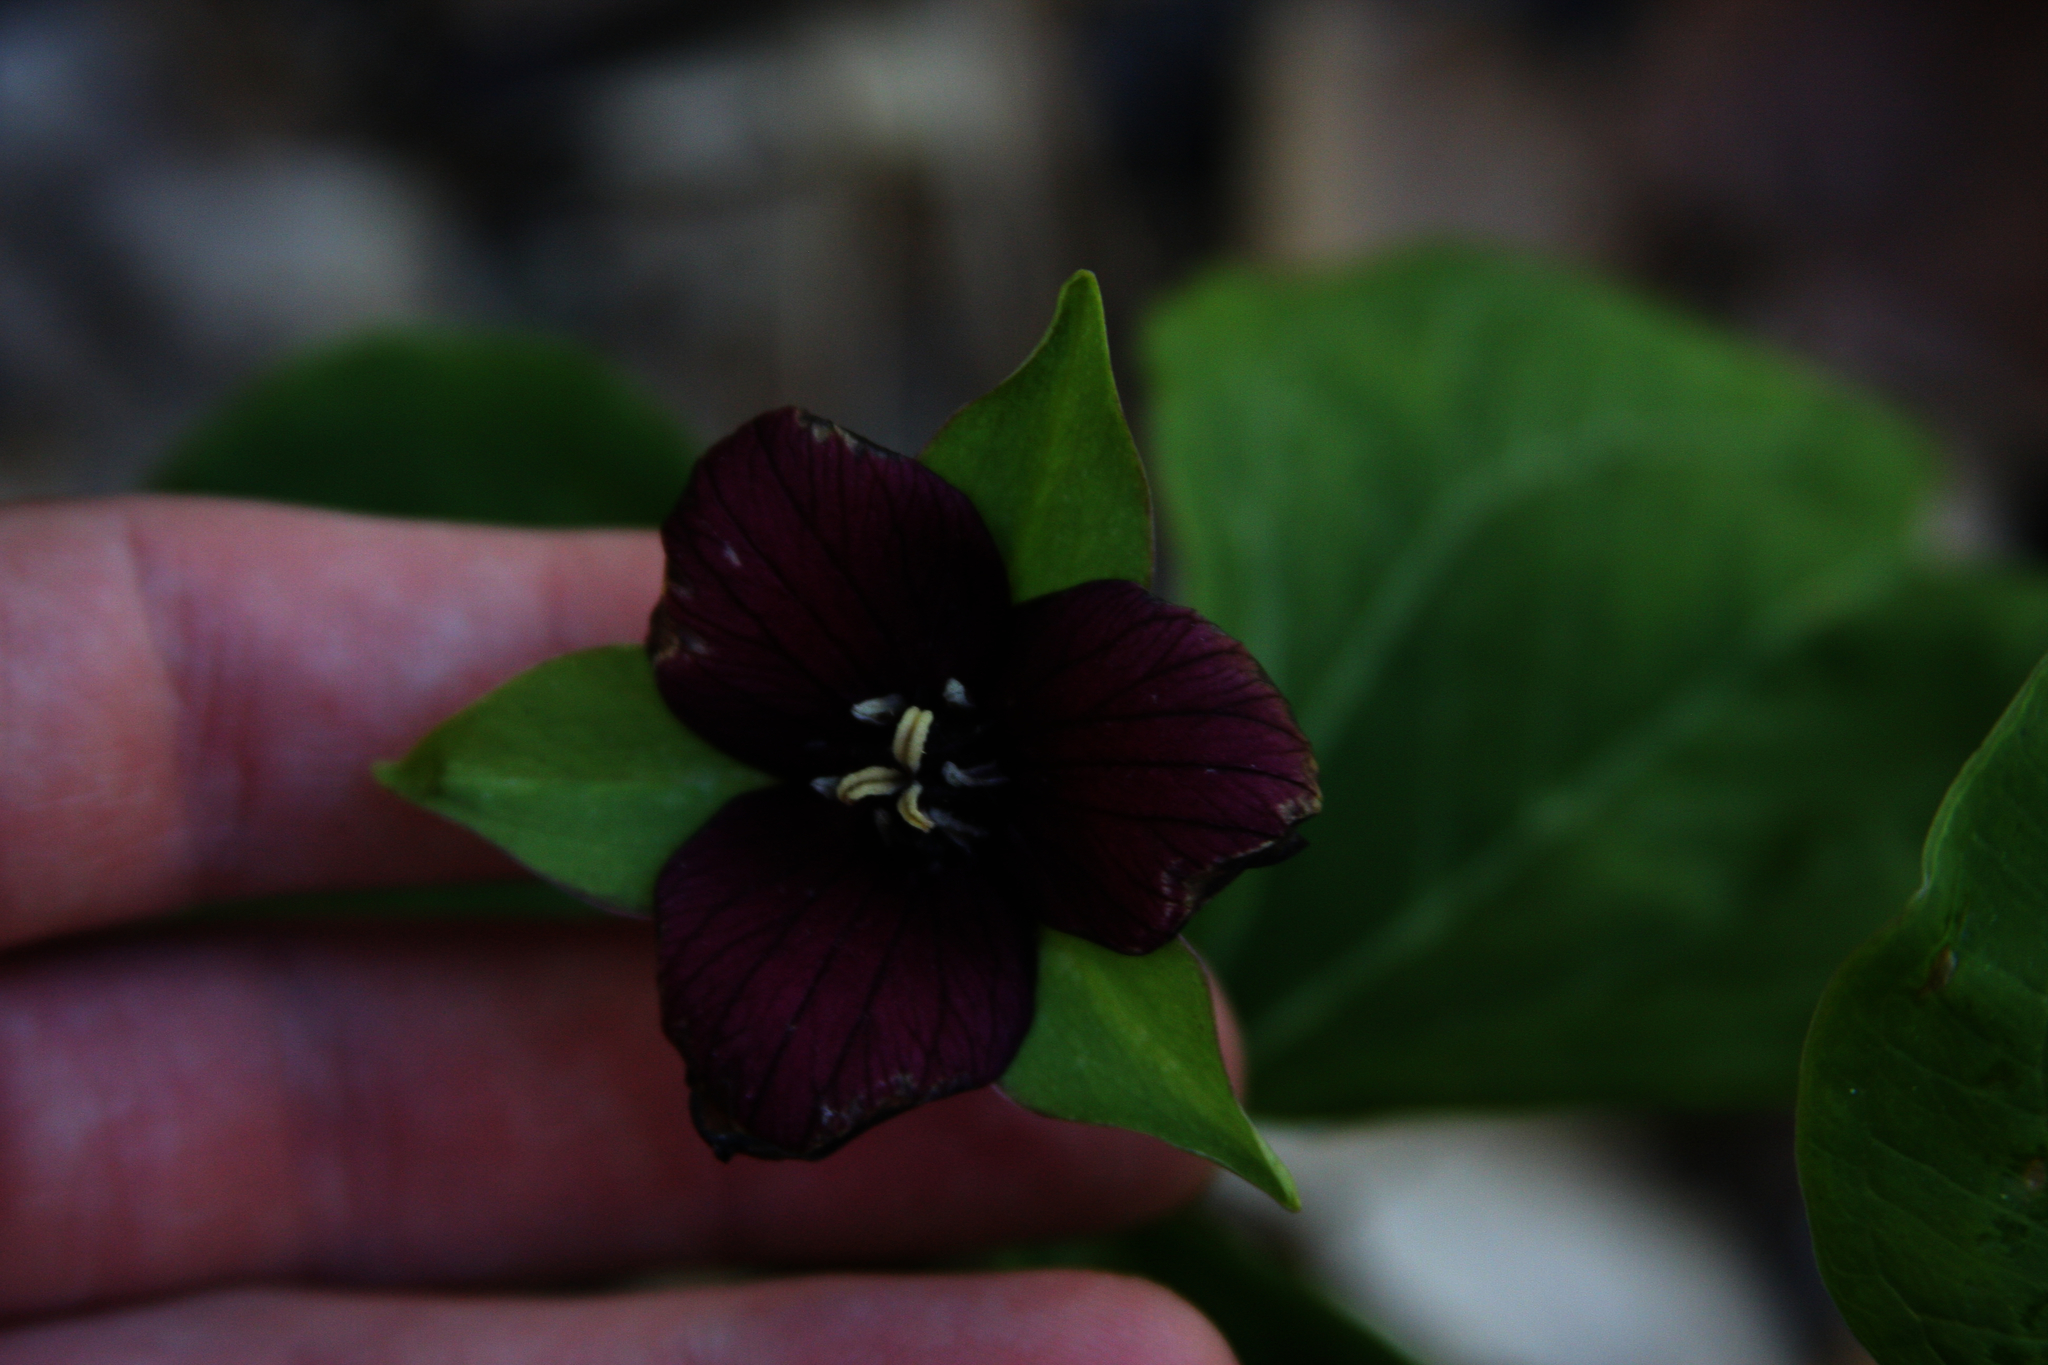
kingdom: Plantae
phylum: Tracheophyta
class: Liliopsida
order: Liliales
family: Melanthiaceae
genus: Trillium
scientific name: Trillium erectum
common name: Purple trillium
